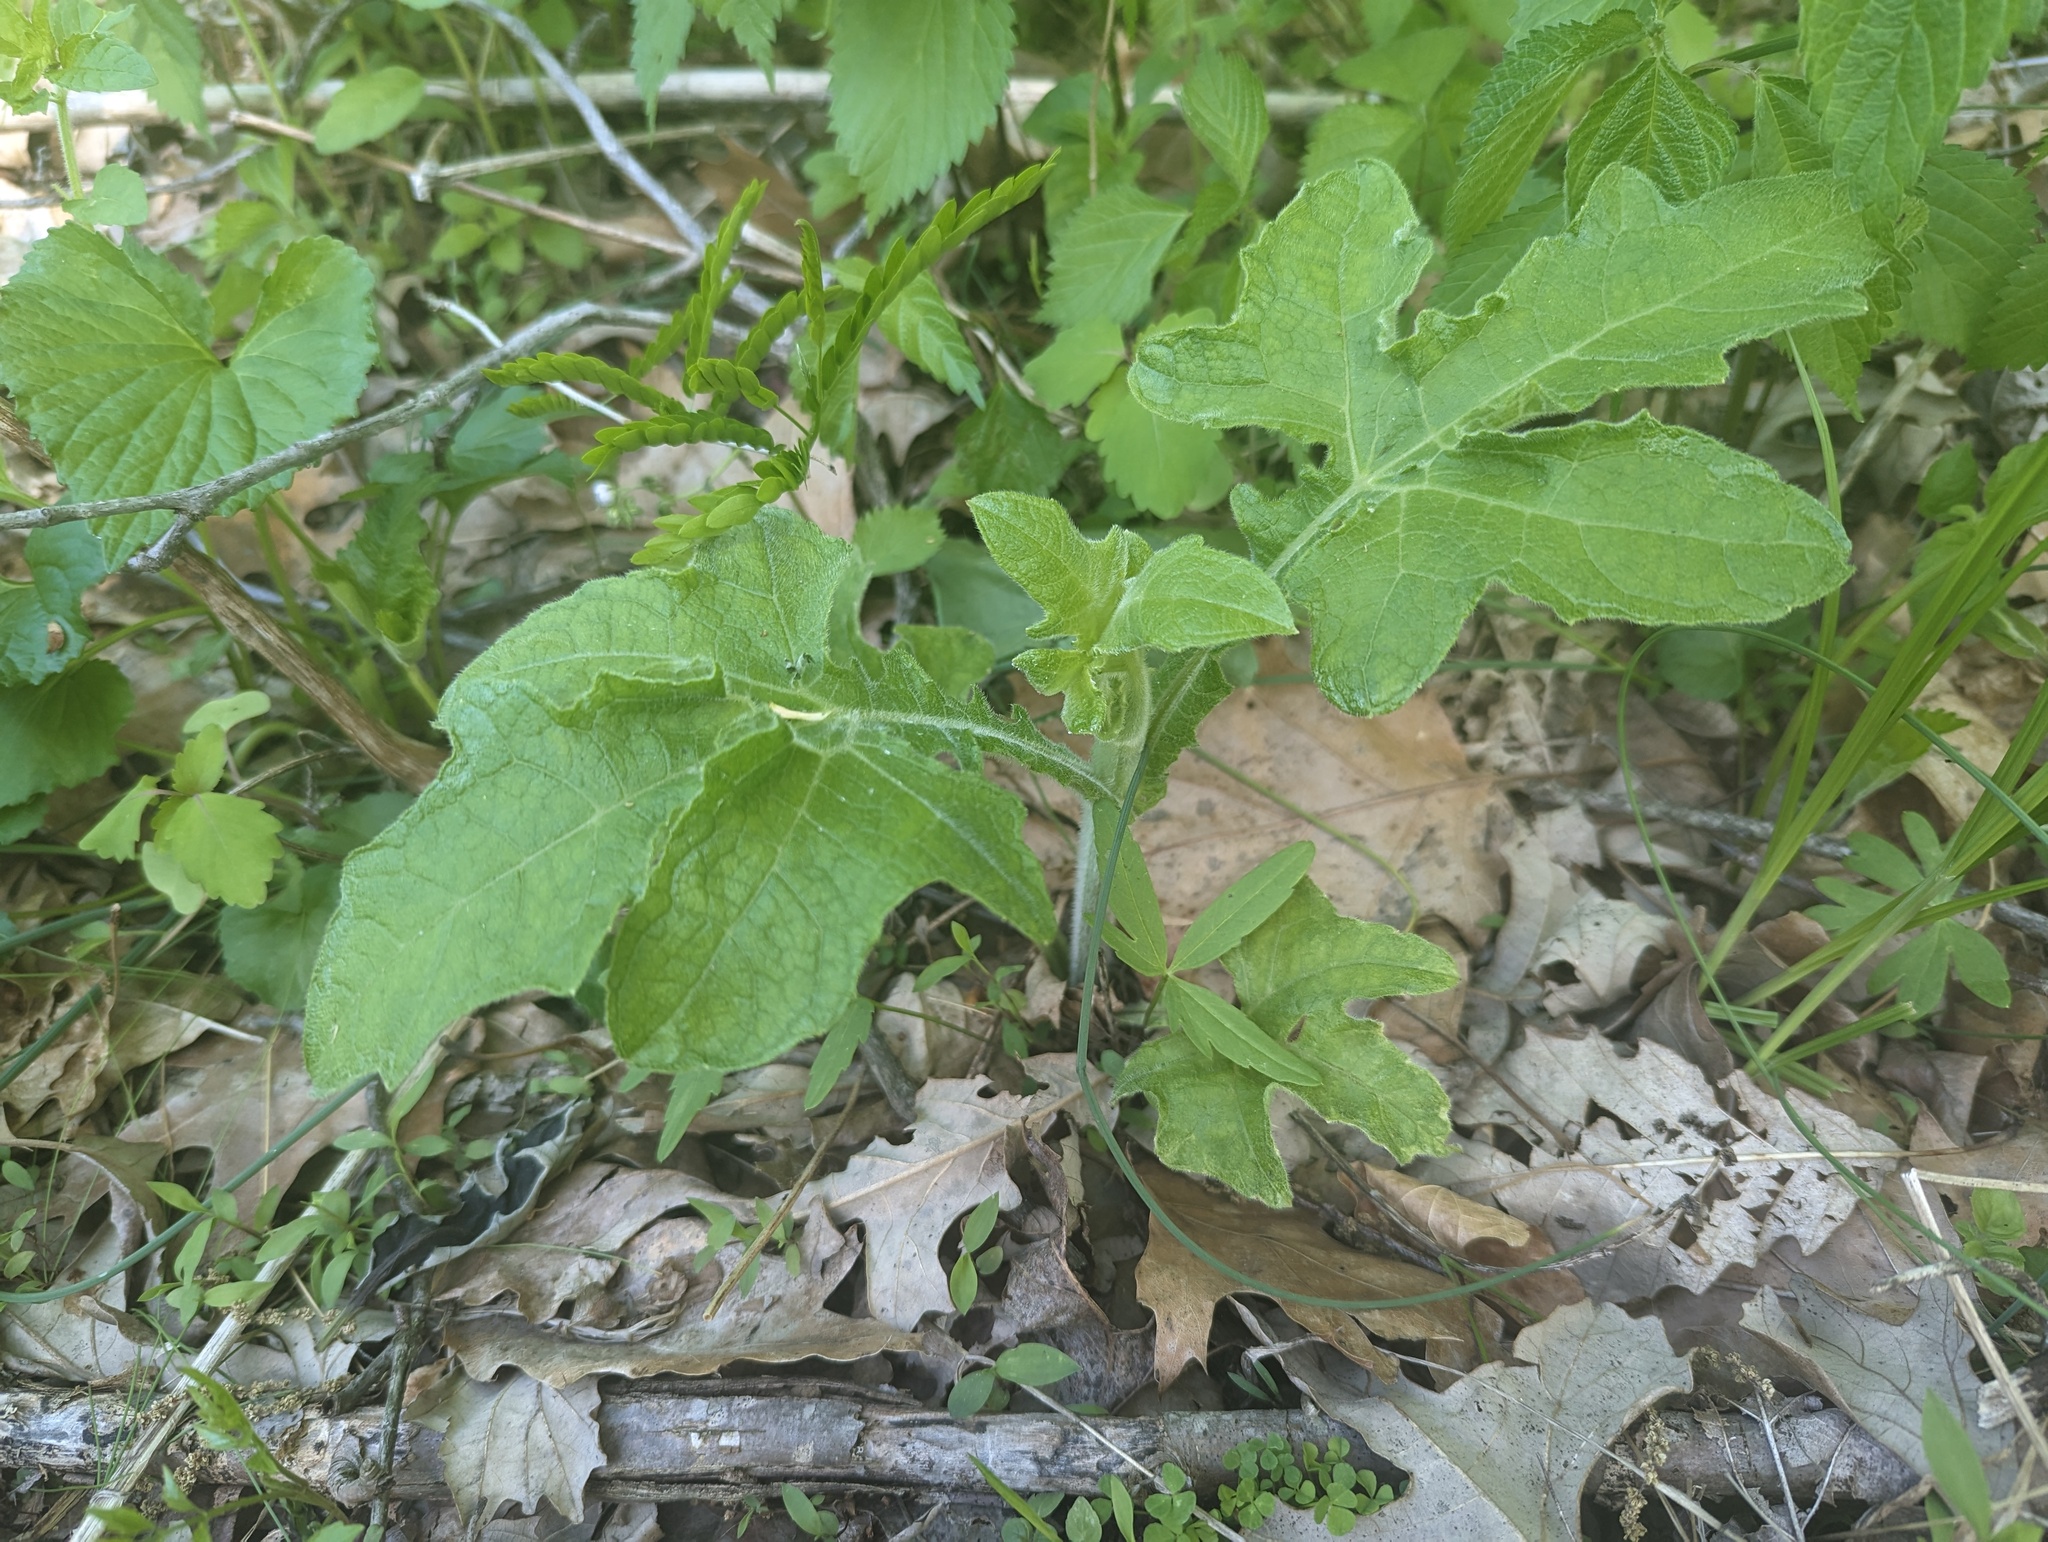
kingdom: Plantae
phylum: Tracheophyta
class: Magnoliopsida
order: Asterales
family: Asteraceae
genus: Smallanthus
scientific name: Smallanthus uvedalia
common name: Bear's-foot
